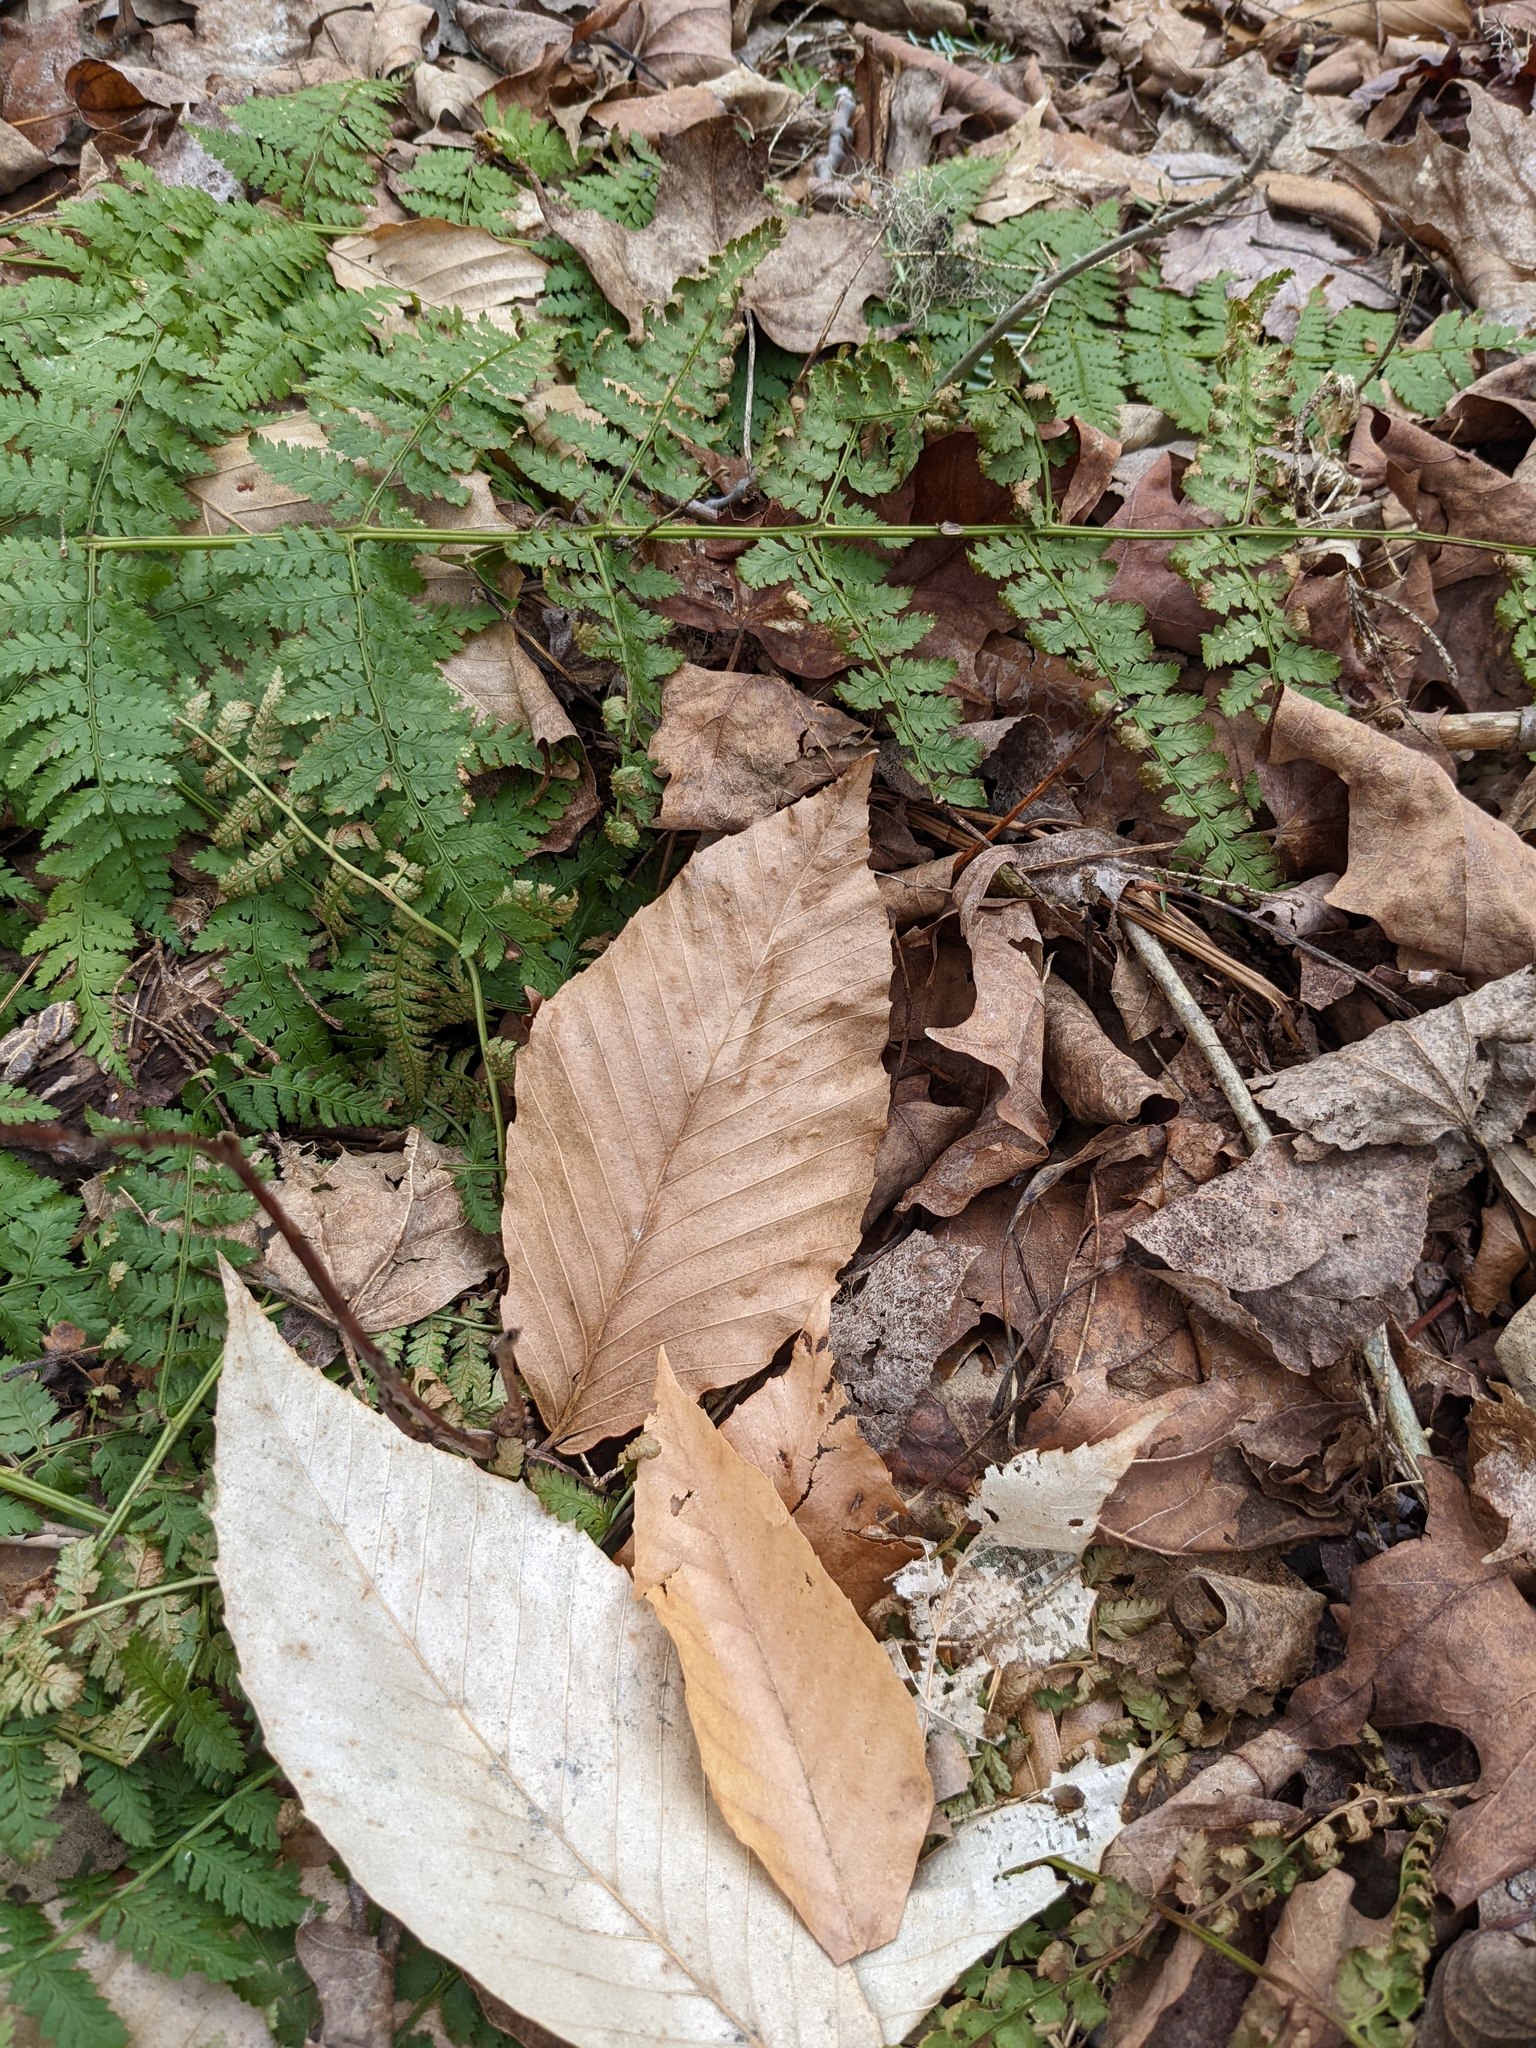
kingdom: Plantae
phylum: Tracheophyta
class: Magnoliopsida
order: Fagales
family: Fagaceae
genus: Fagus
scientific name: Fagus grandifolia
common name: American beech
